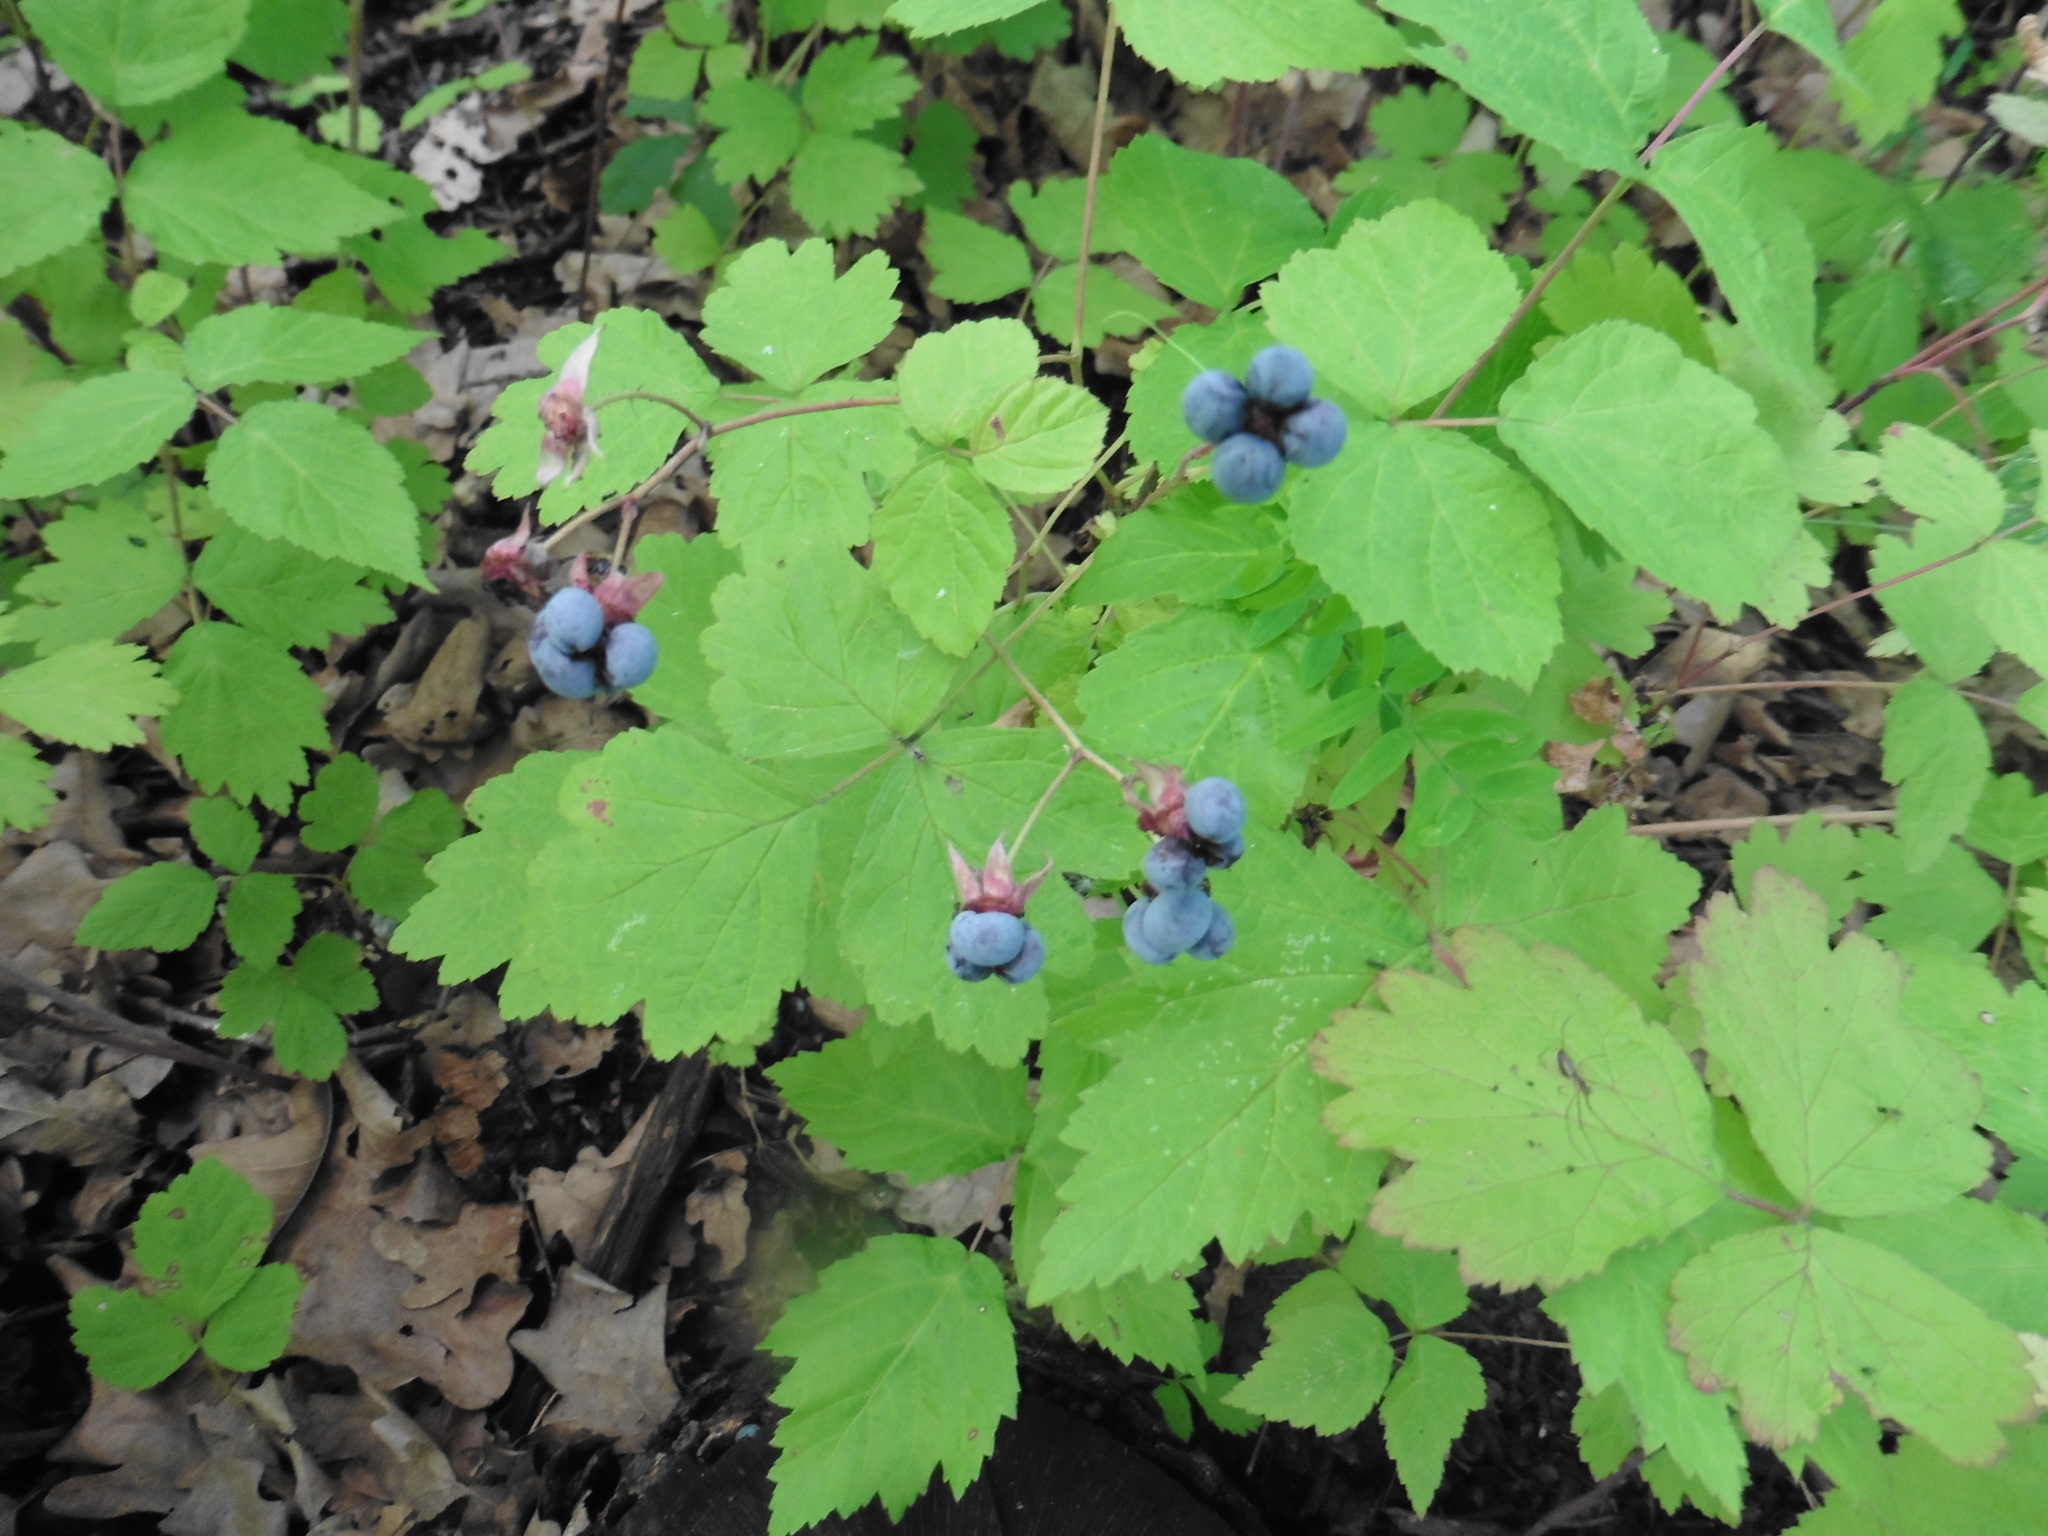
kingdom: Plantae
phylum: Tracheophyta
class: Magnoliopsida
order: Rosales
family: Rosaceae
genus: Rubus
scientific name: Rubus caesius
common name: Dewberry
